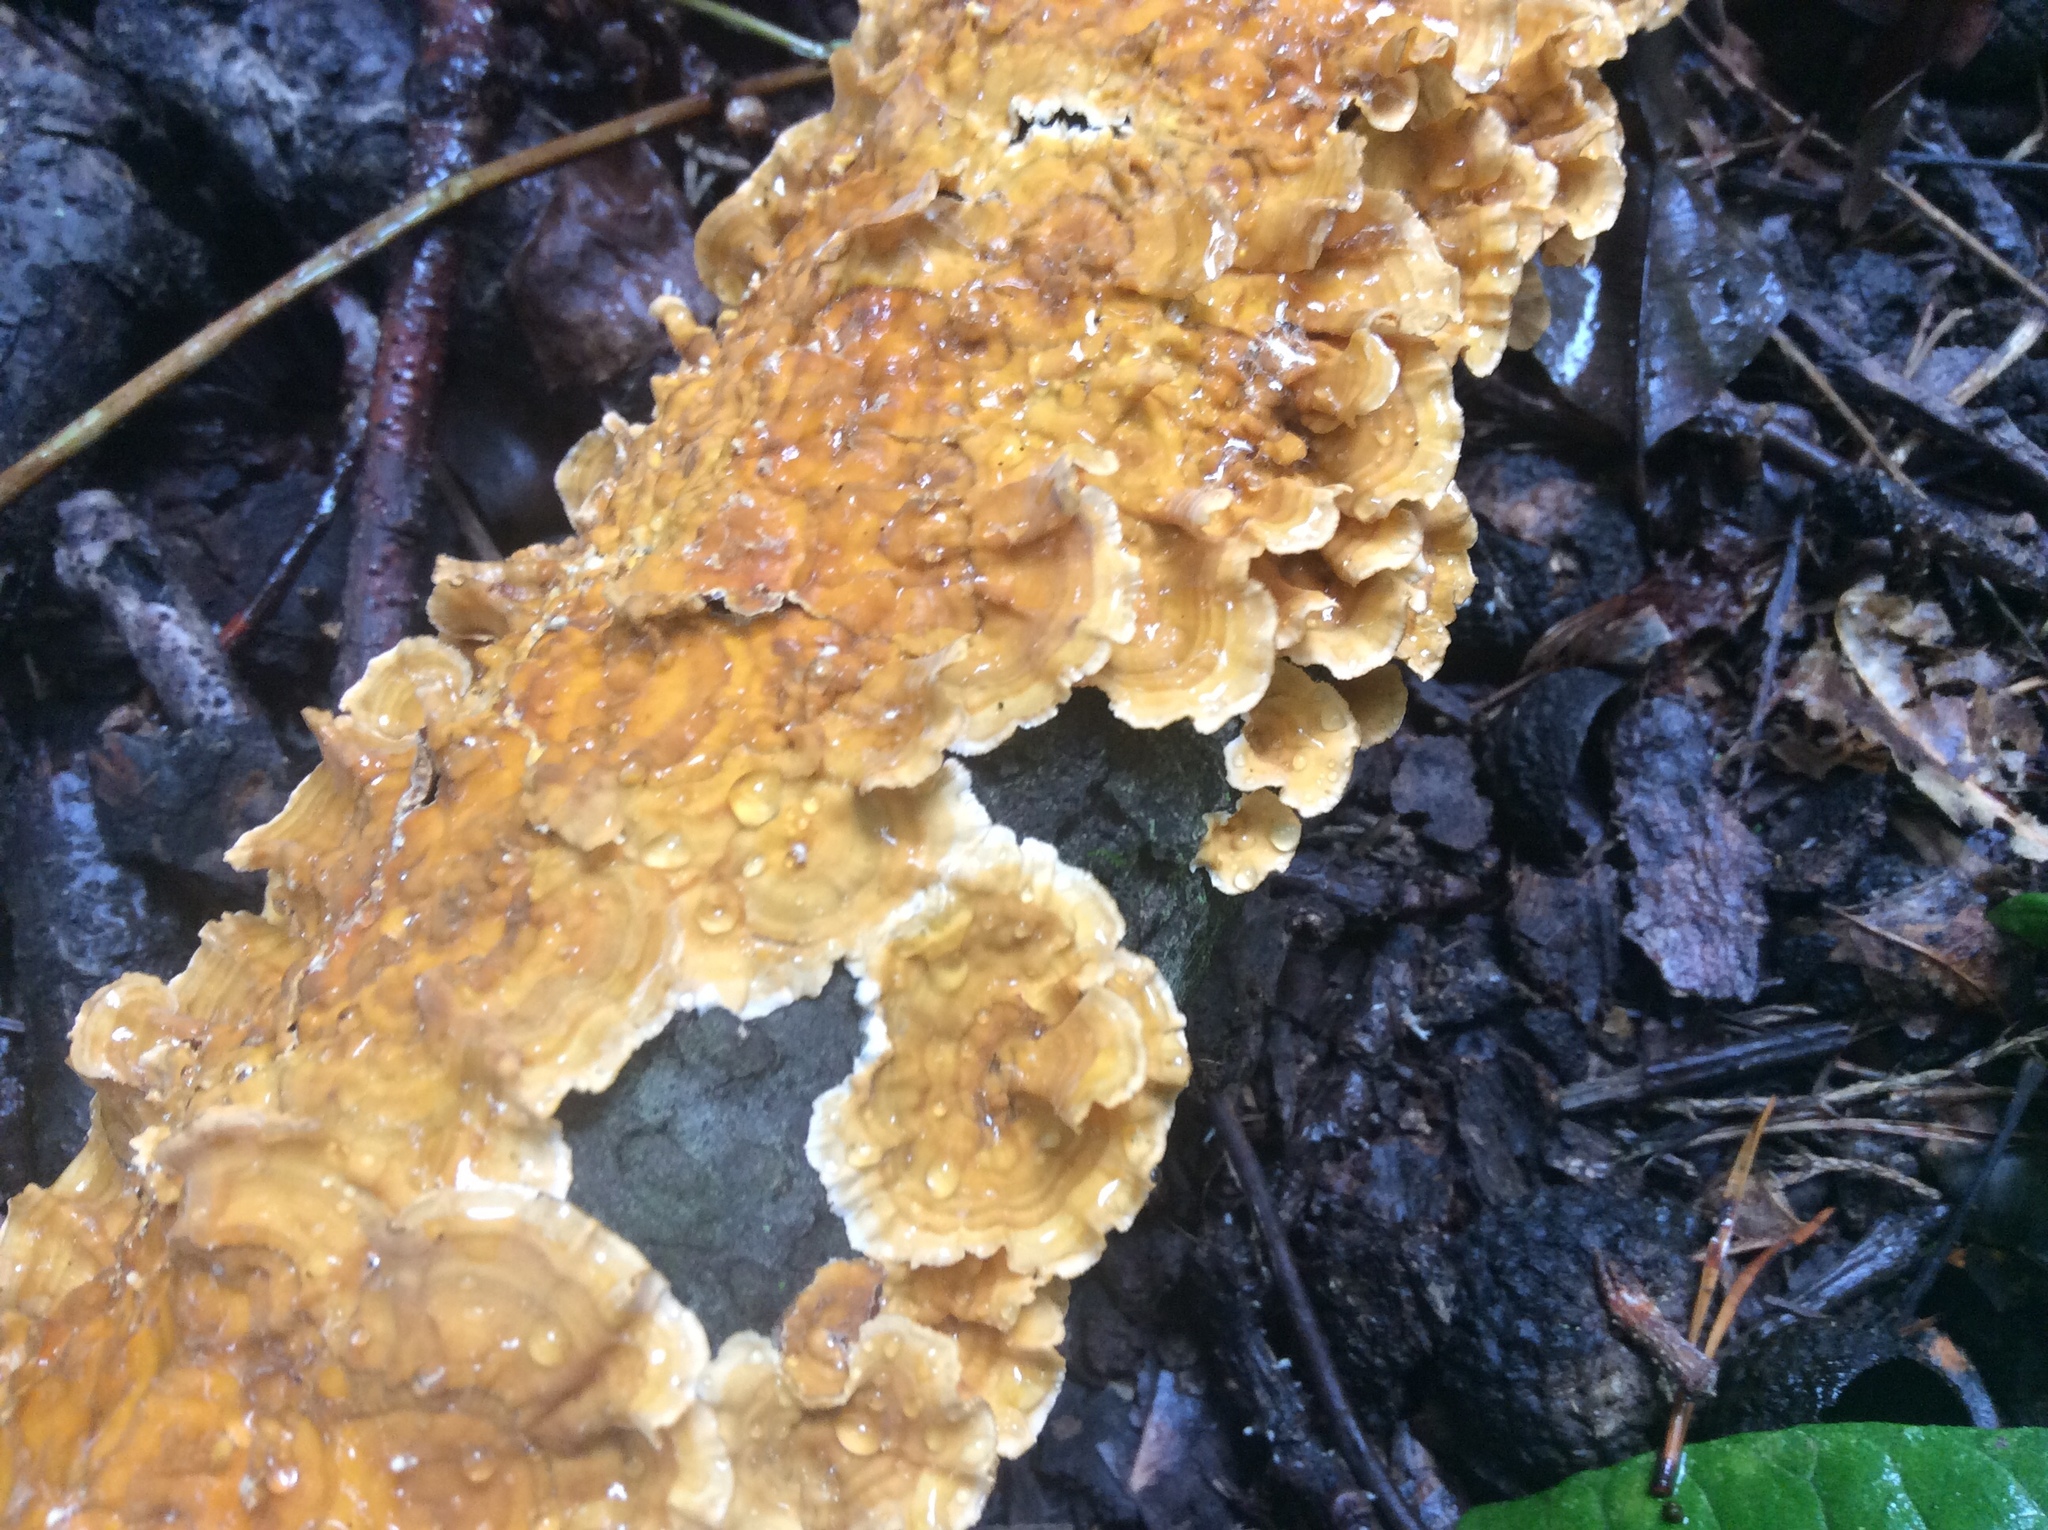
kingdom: Fungi
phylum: Basidiomycota
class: Agaricomycetes
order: Russulales
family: Stereaceae
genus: Stereum
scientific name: Stereum complicatum
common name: Crowded parchment
